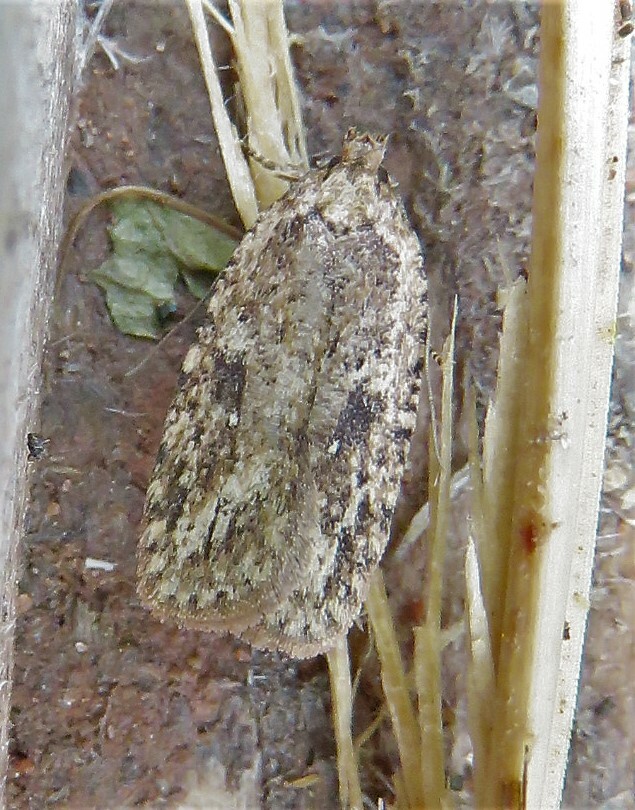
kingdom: Animalia
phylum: Arthropoda
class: Insecta
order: Lepidoptera
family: Depressariidae
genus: Agonopterix
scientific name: Agonopterix pulvipennella
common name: Goldenrod leafffolder
